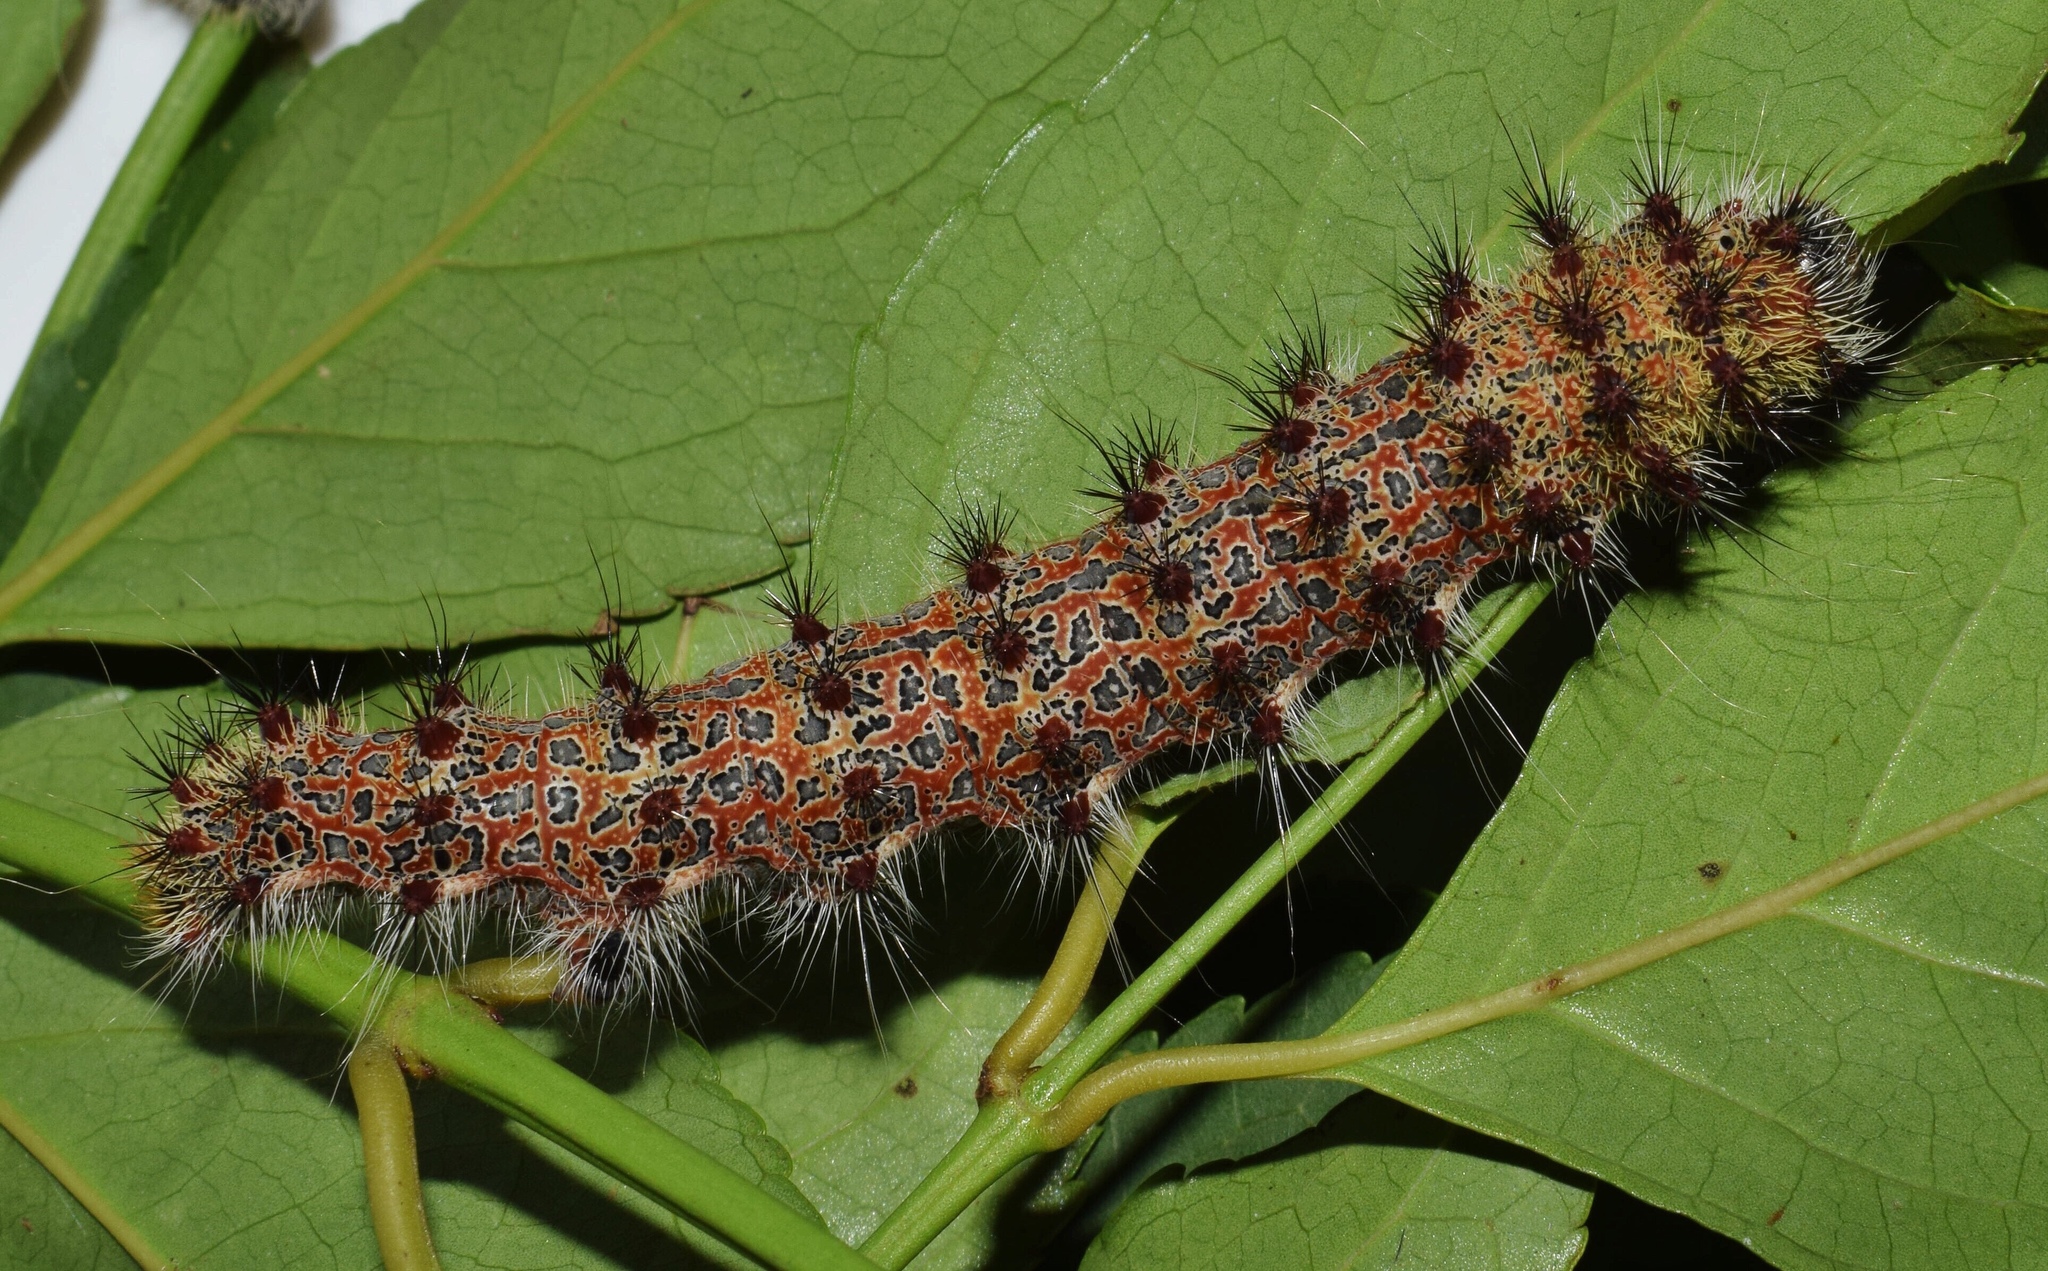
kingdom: Animalia
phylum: Arthropoda
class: Insecta
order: Lepidoptera
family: Saturniidae
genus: Holocerina
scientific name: Holocerina smilax
